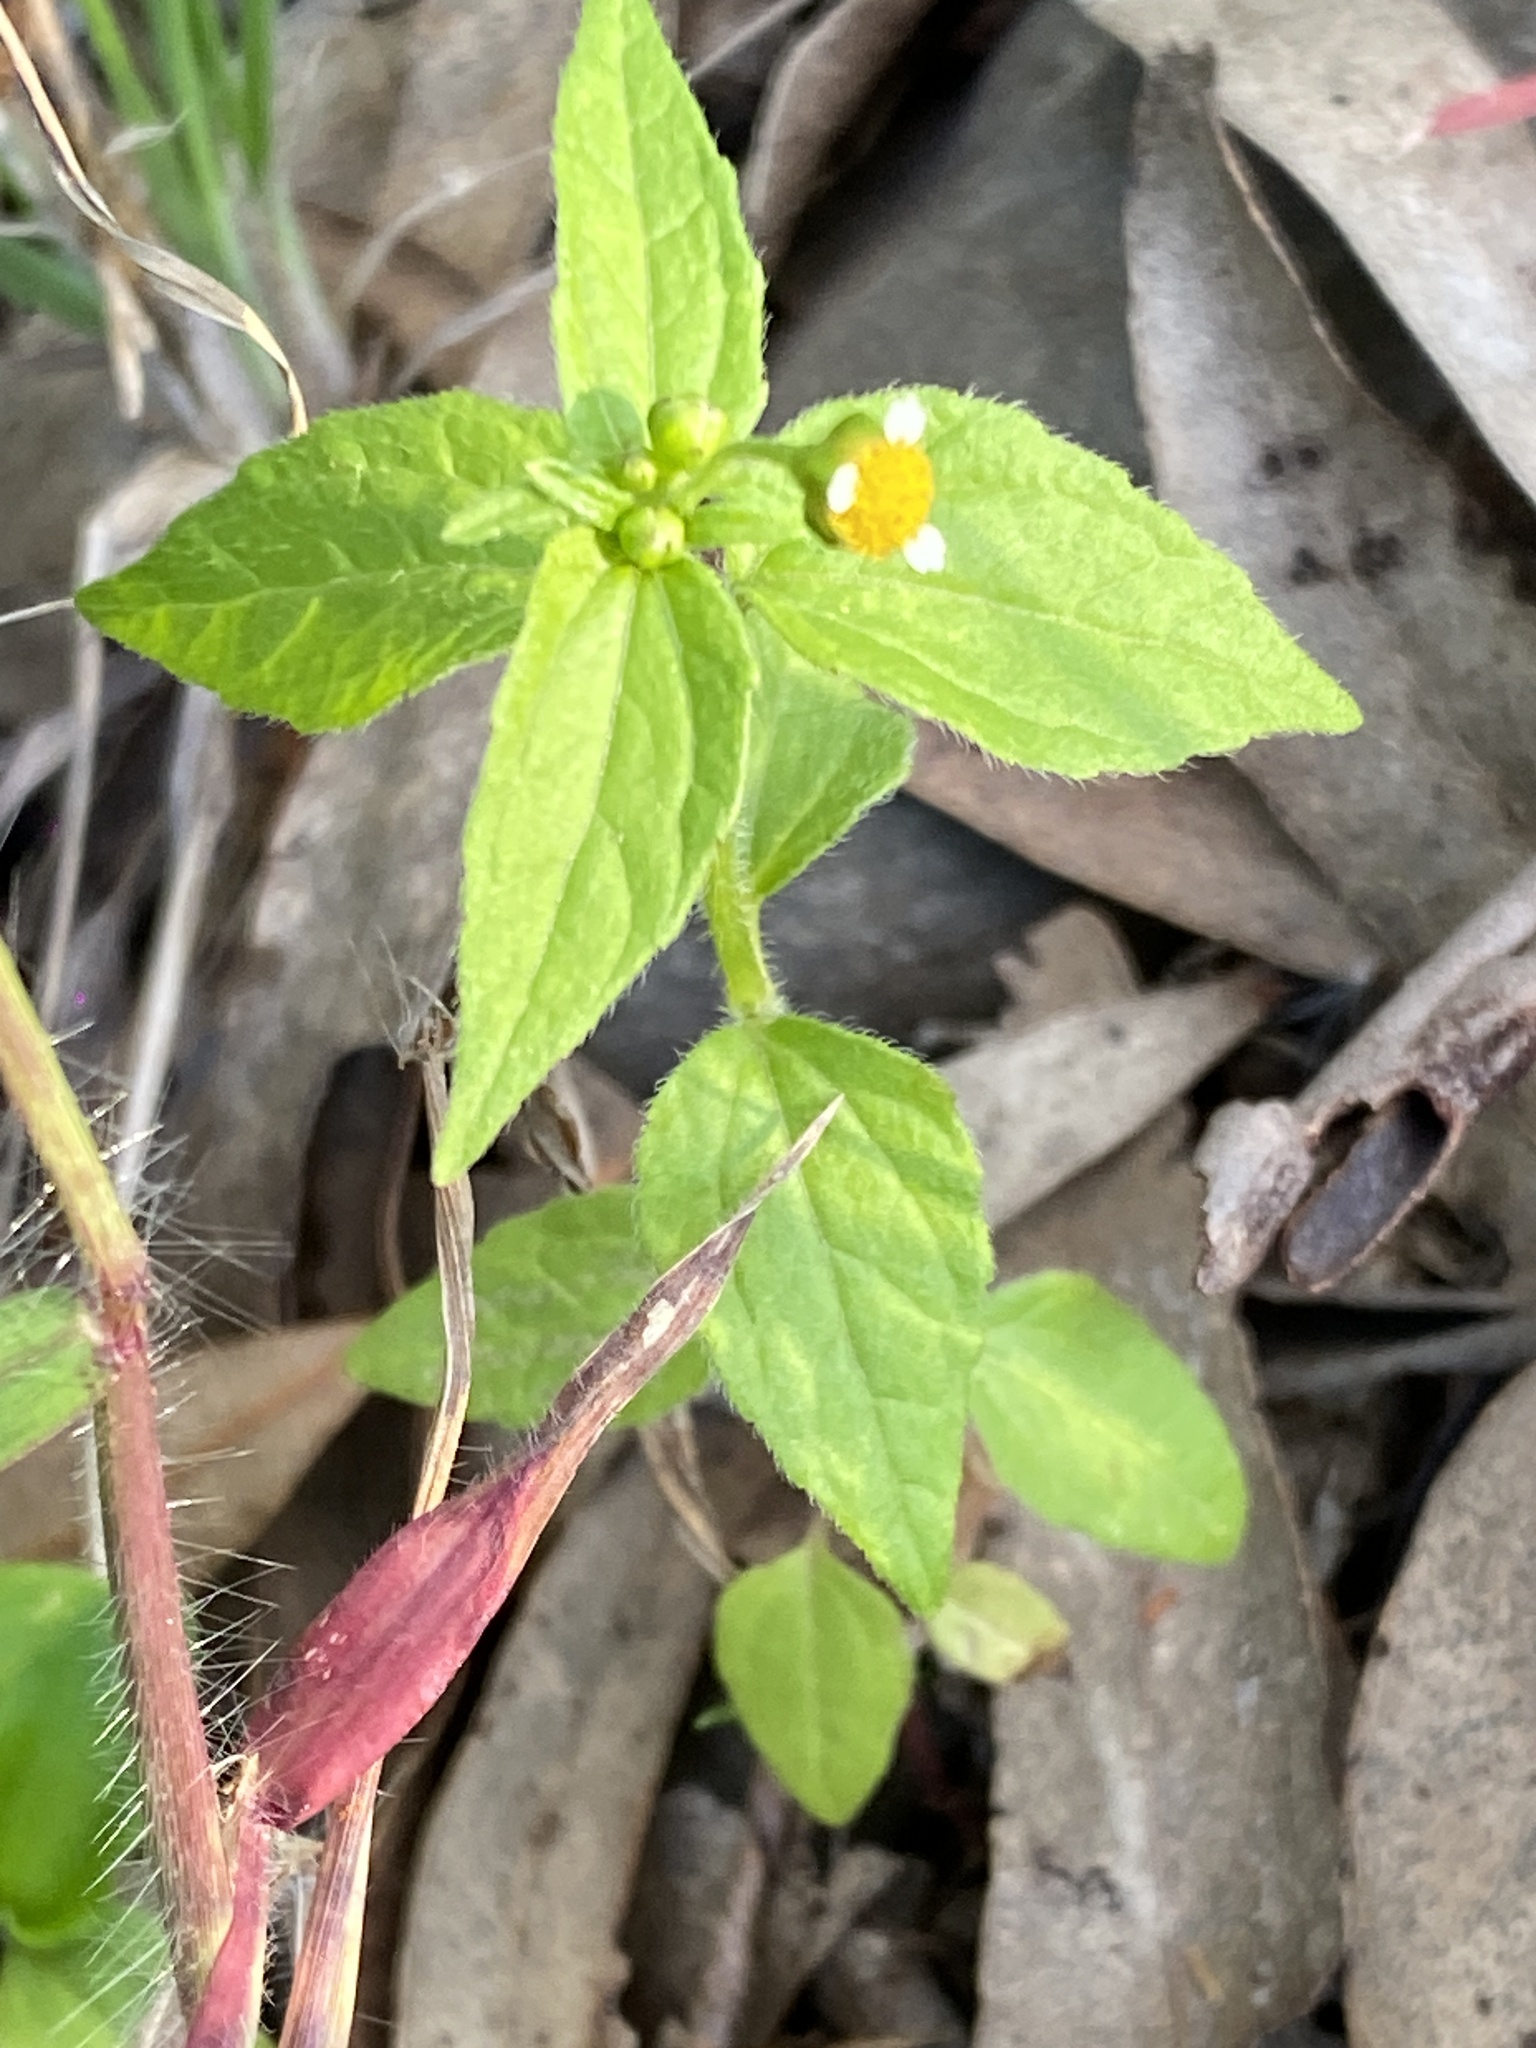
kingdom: Plantae
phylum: Tracheophyta
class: Magnoliopsida
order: Asterales
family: Asteraceae
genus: Galinsoga
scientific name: Galinsoga parviflora
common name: Gallant soldier
